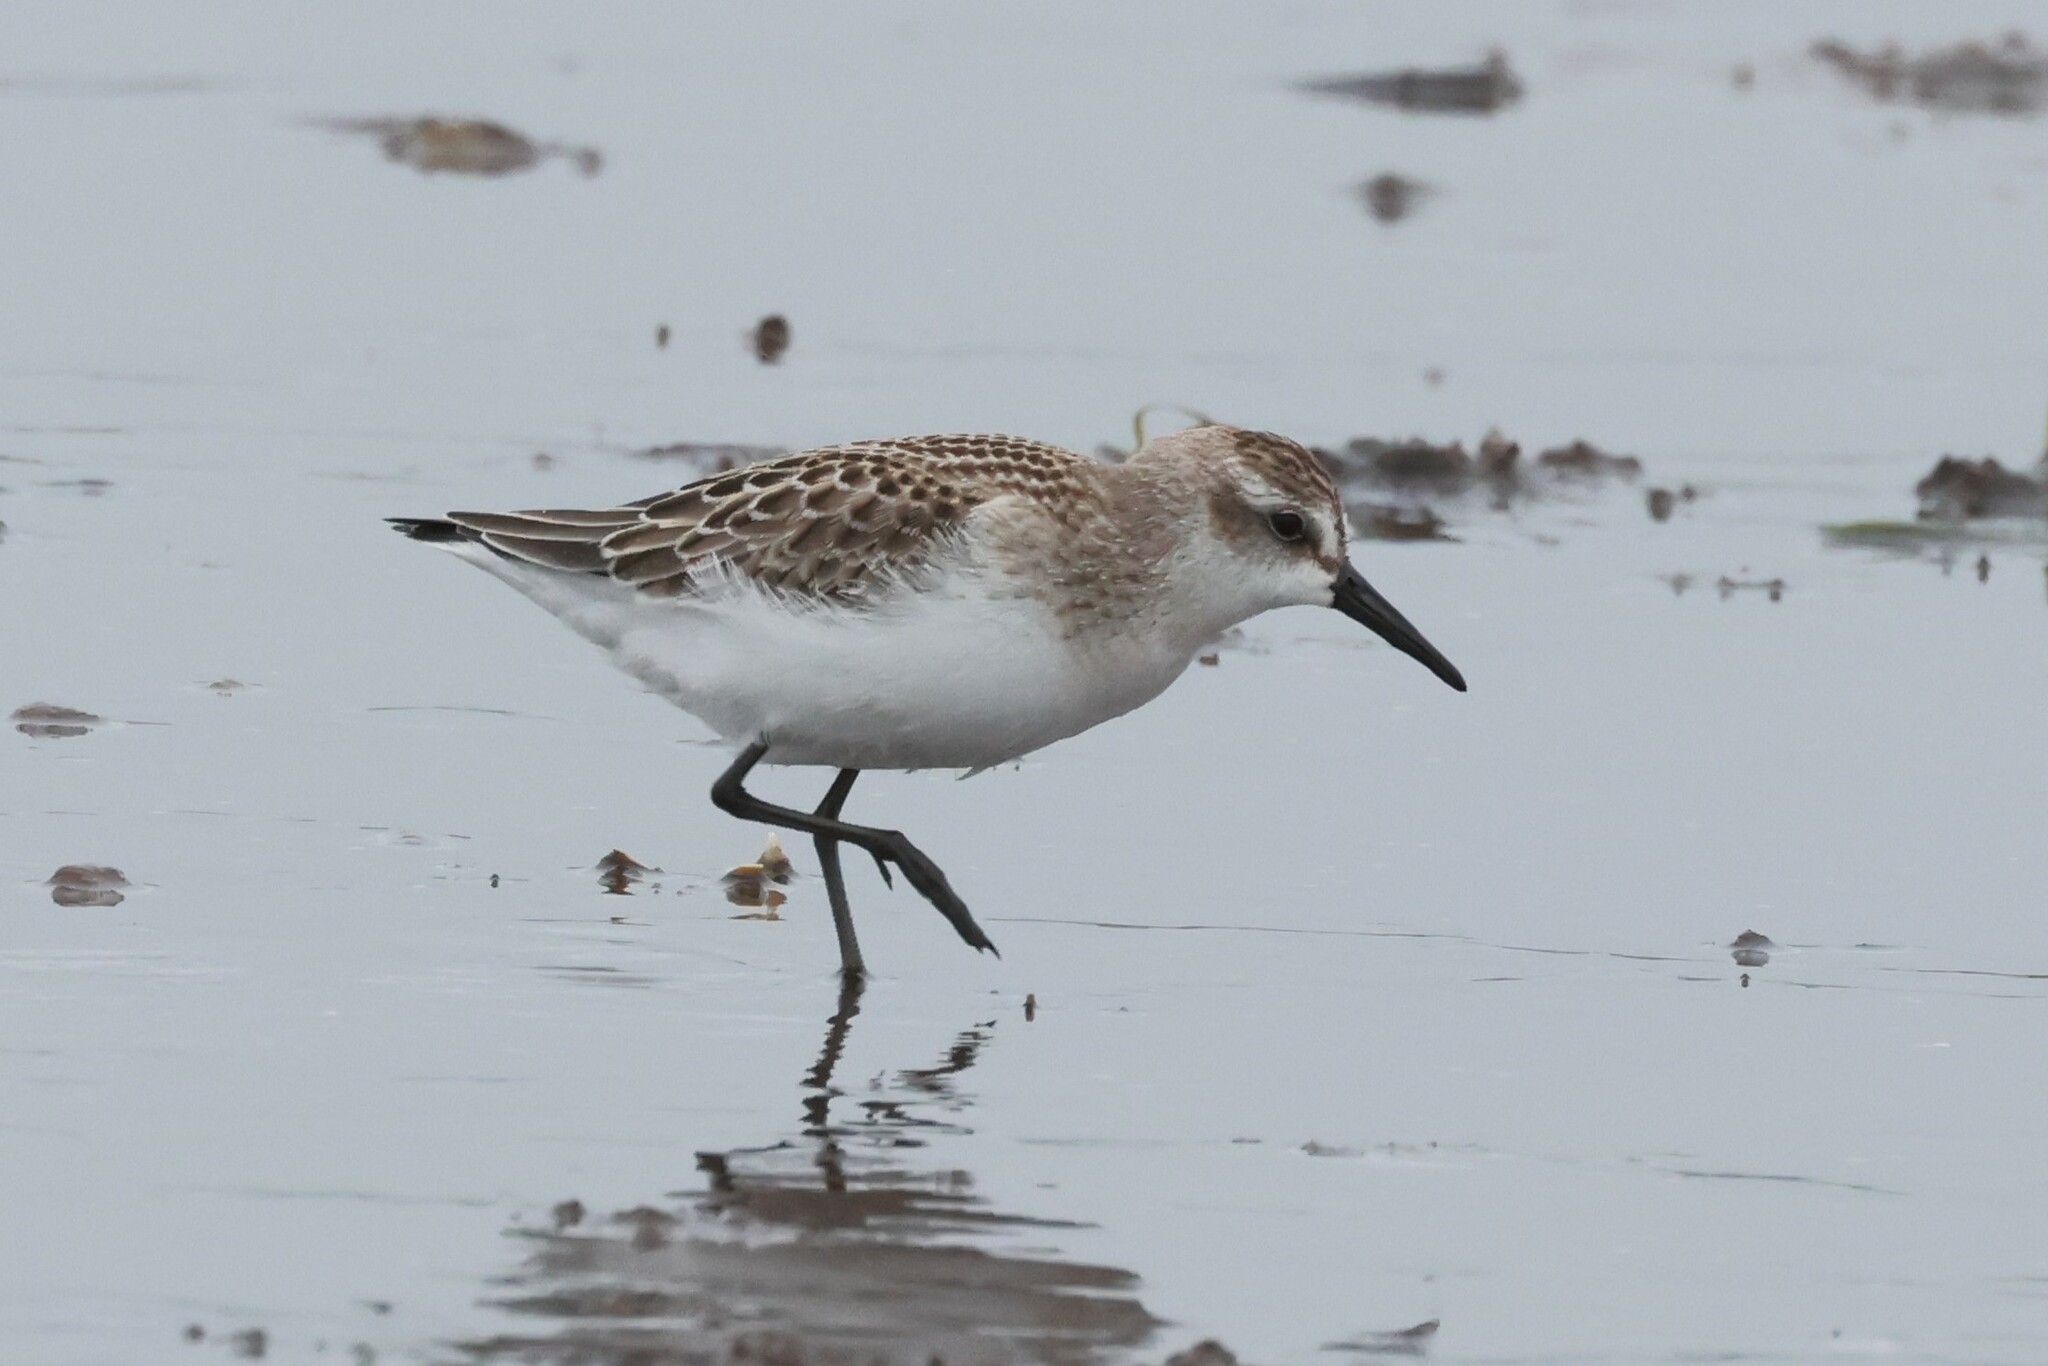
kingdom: Animalia
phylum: Chordata
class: Aves
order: Charadriiformes
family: Scolopacidae
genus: Calidris
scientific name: Calidris pusilla
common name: Semipalmated sandpiper
